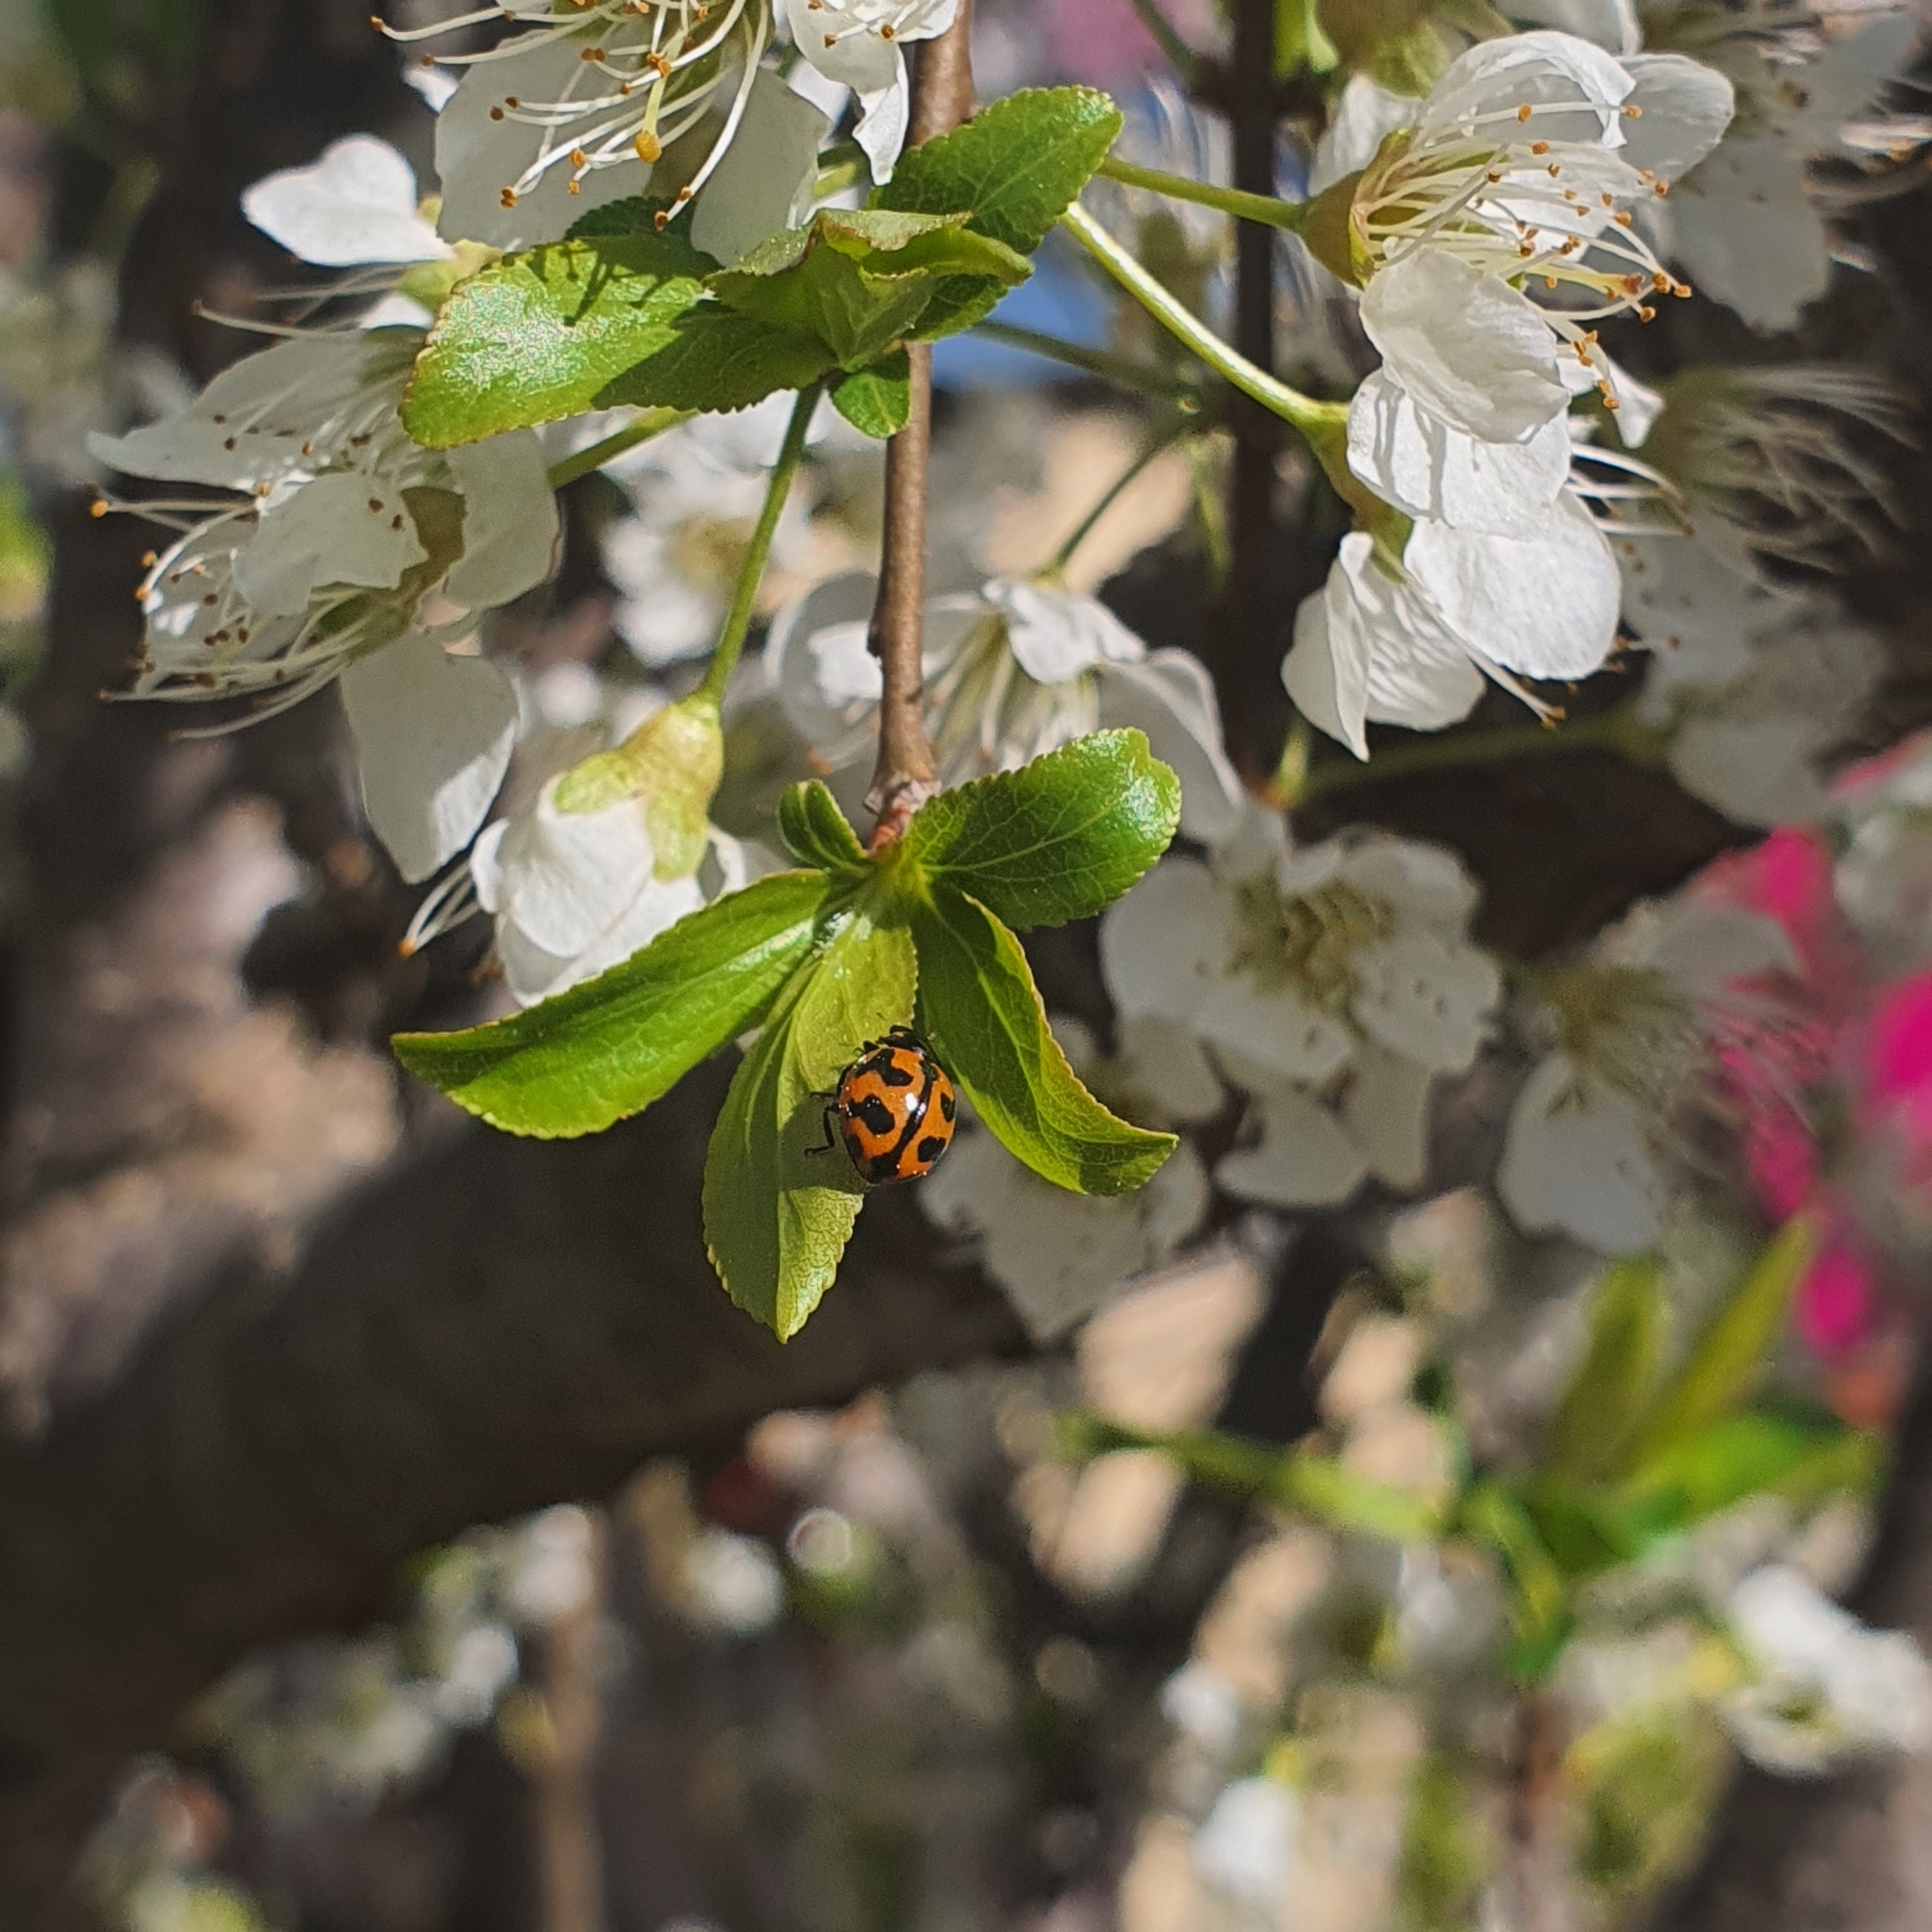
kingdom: Animalia
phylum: Arthropoda
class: Insecta
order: Coleoptera
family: Coccinellidae
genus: Coccinella
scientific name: Coccinella transversalis
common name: Transverse lady beetle
